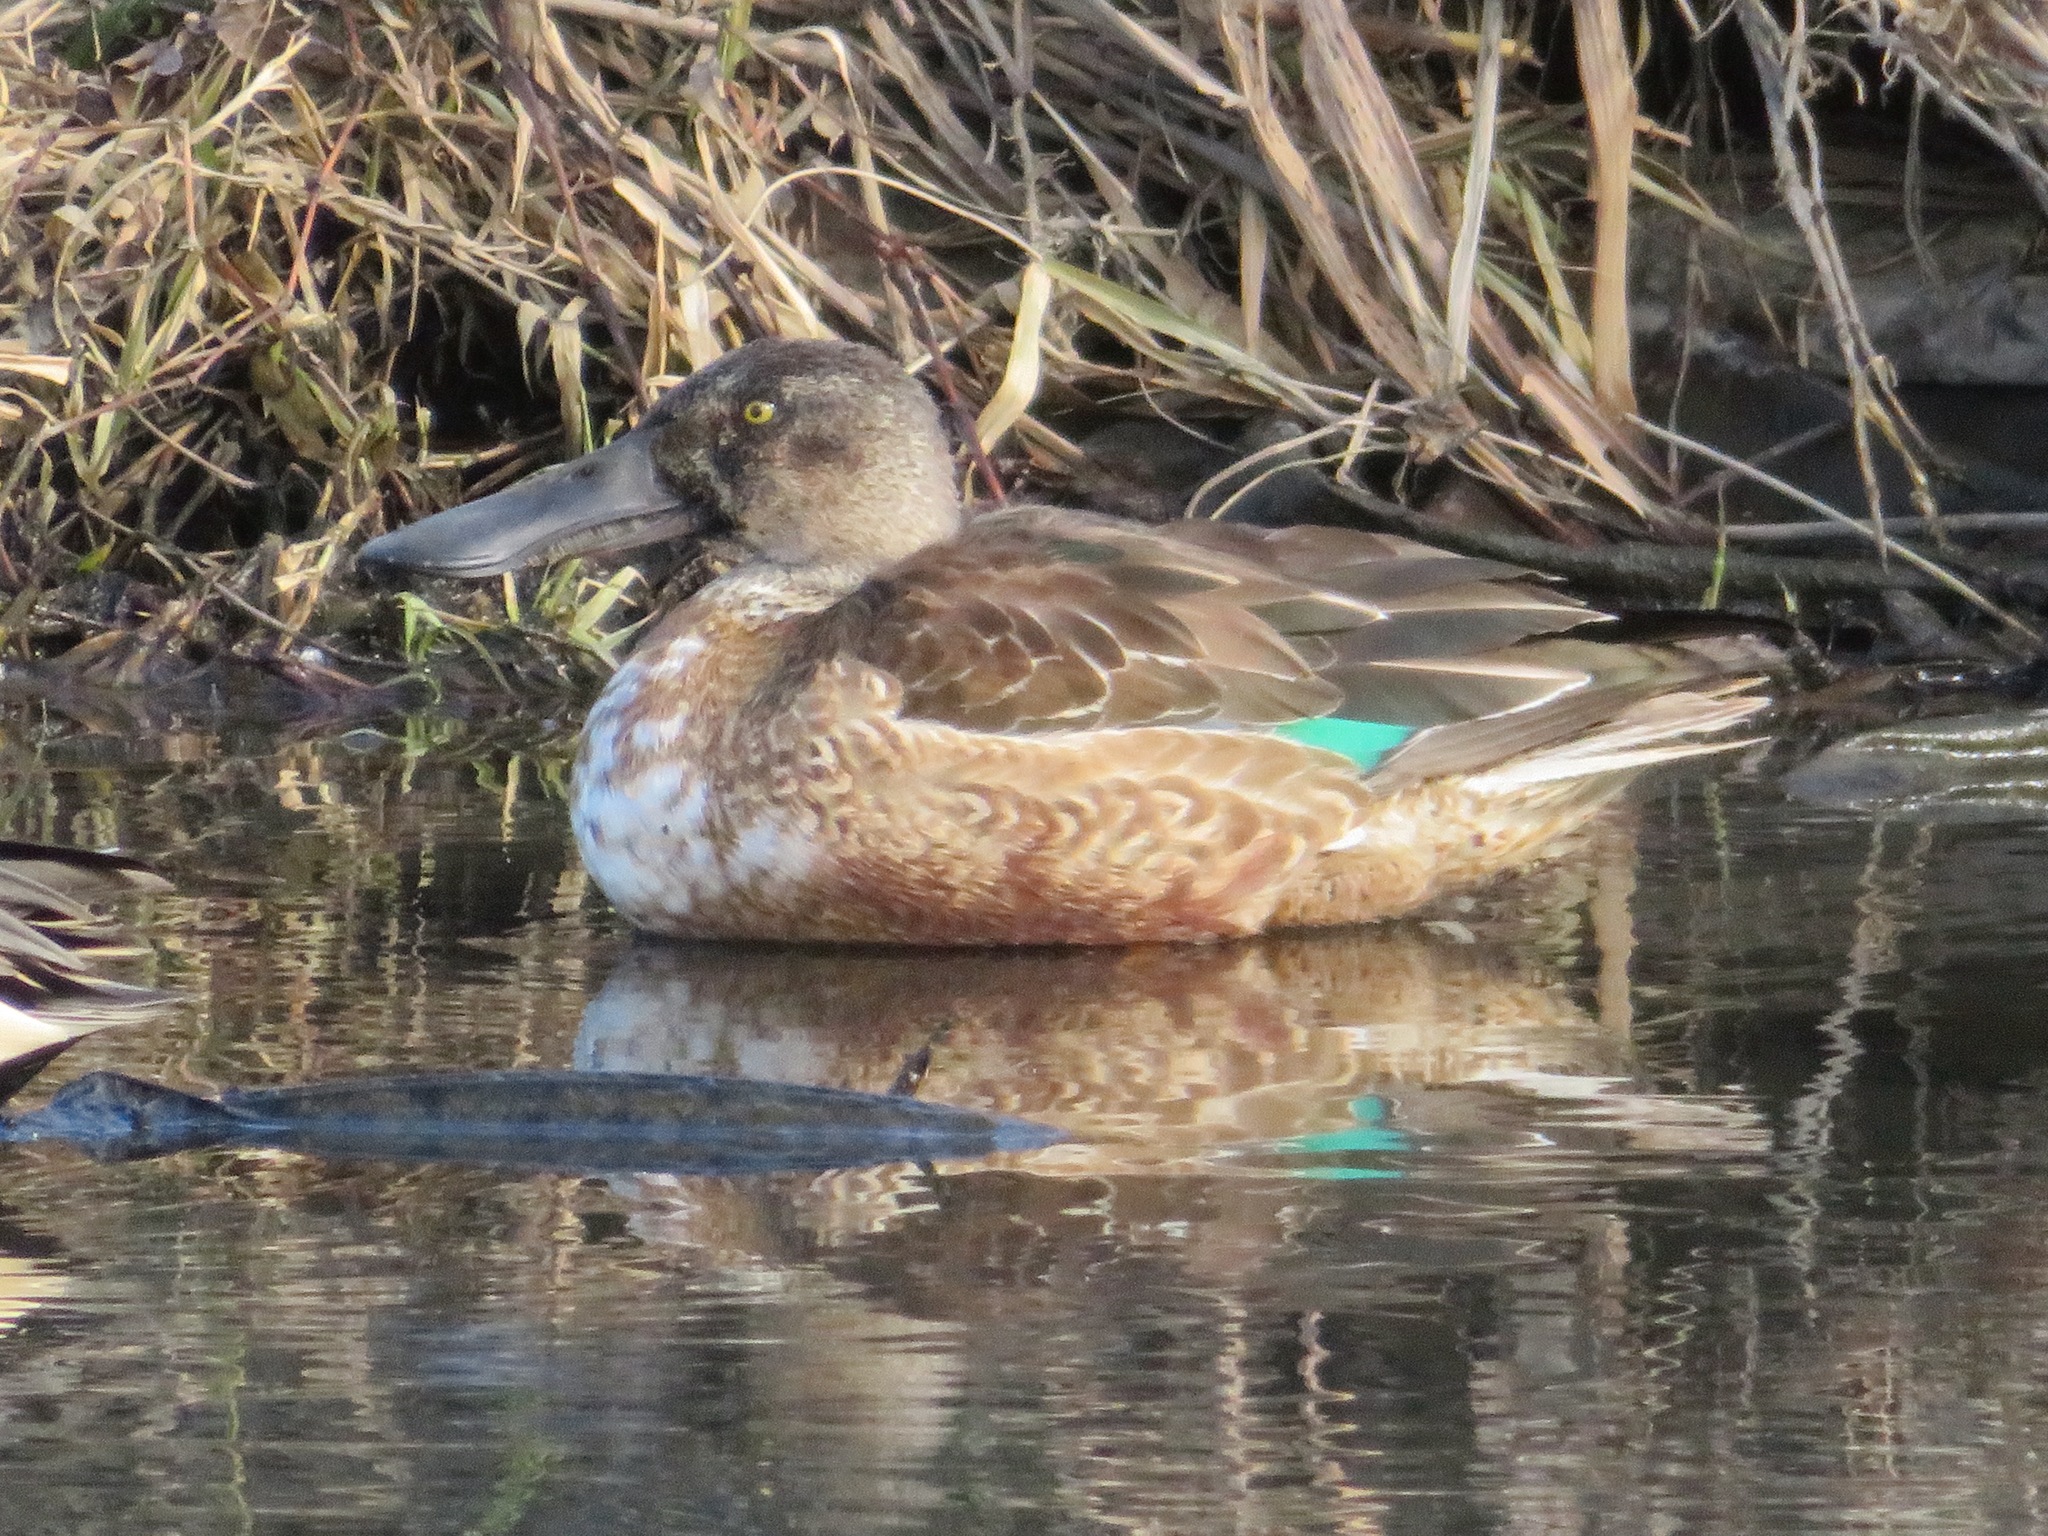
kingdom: Animalia
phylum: Chordata
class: Aves
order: Anseriformes
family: Anatidae
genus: Spatula
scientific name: Spatula clypeata
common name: Northern shoveler
